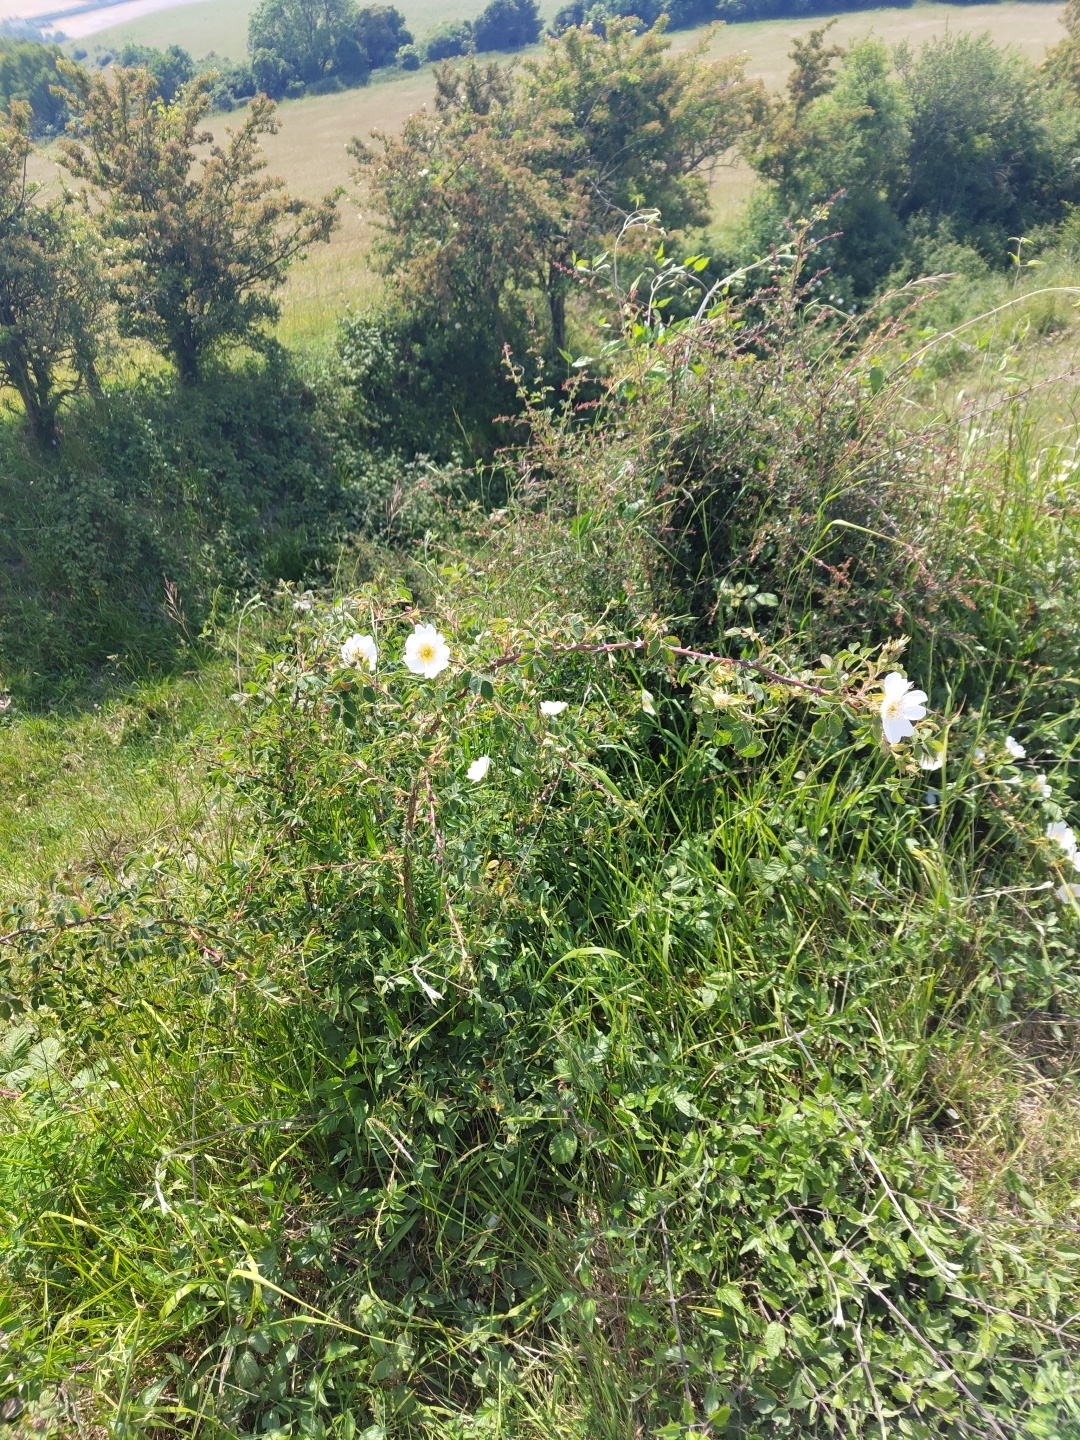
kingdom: Plantae
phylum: Tracheophyta
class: Magnoliopsida
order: Rosales
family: Rosaceae
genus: Rosa
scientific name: Rosa canina
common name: Dog rose
